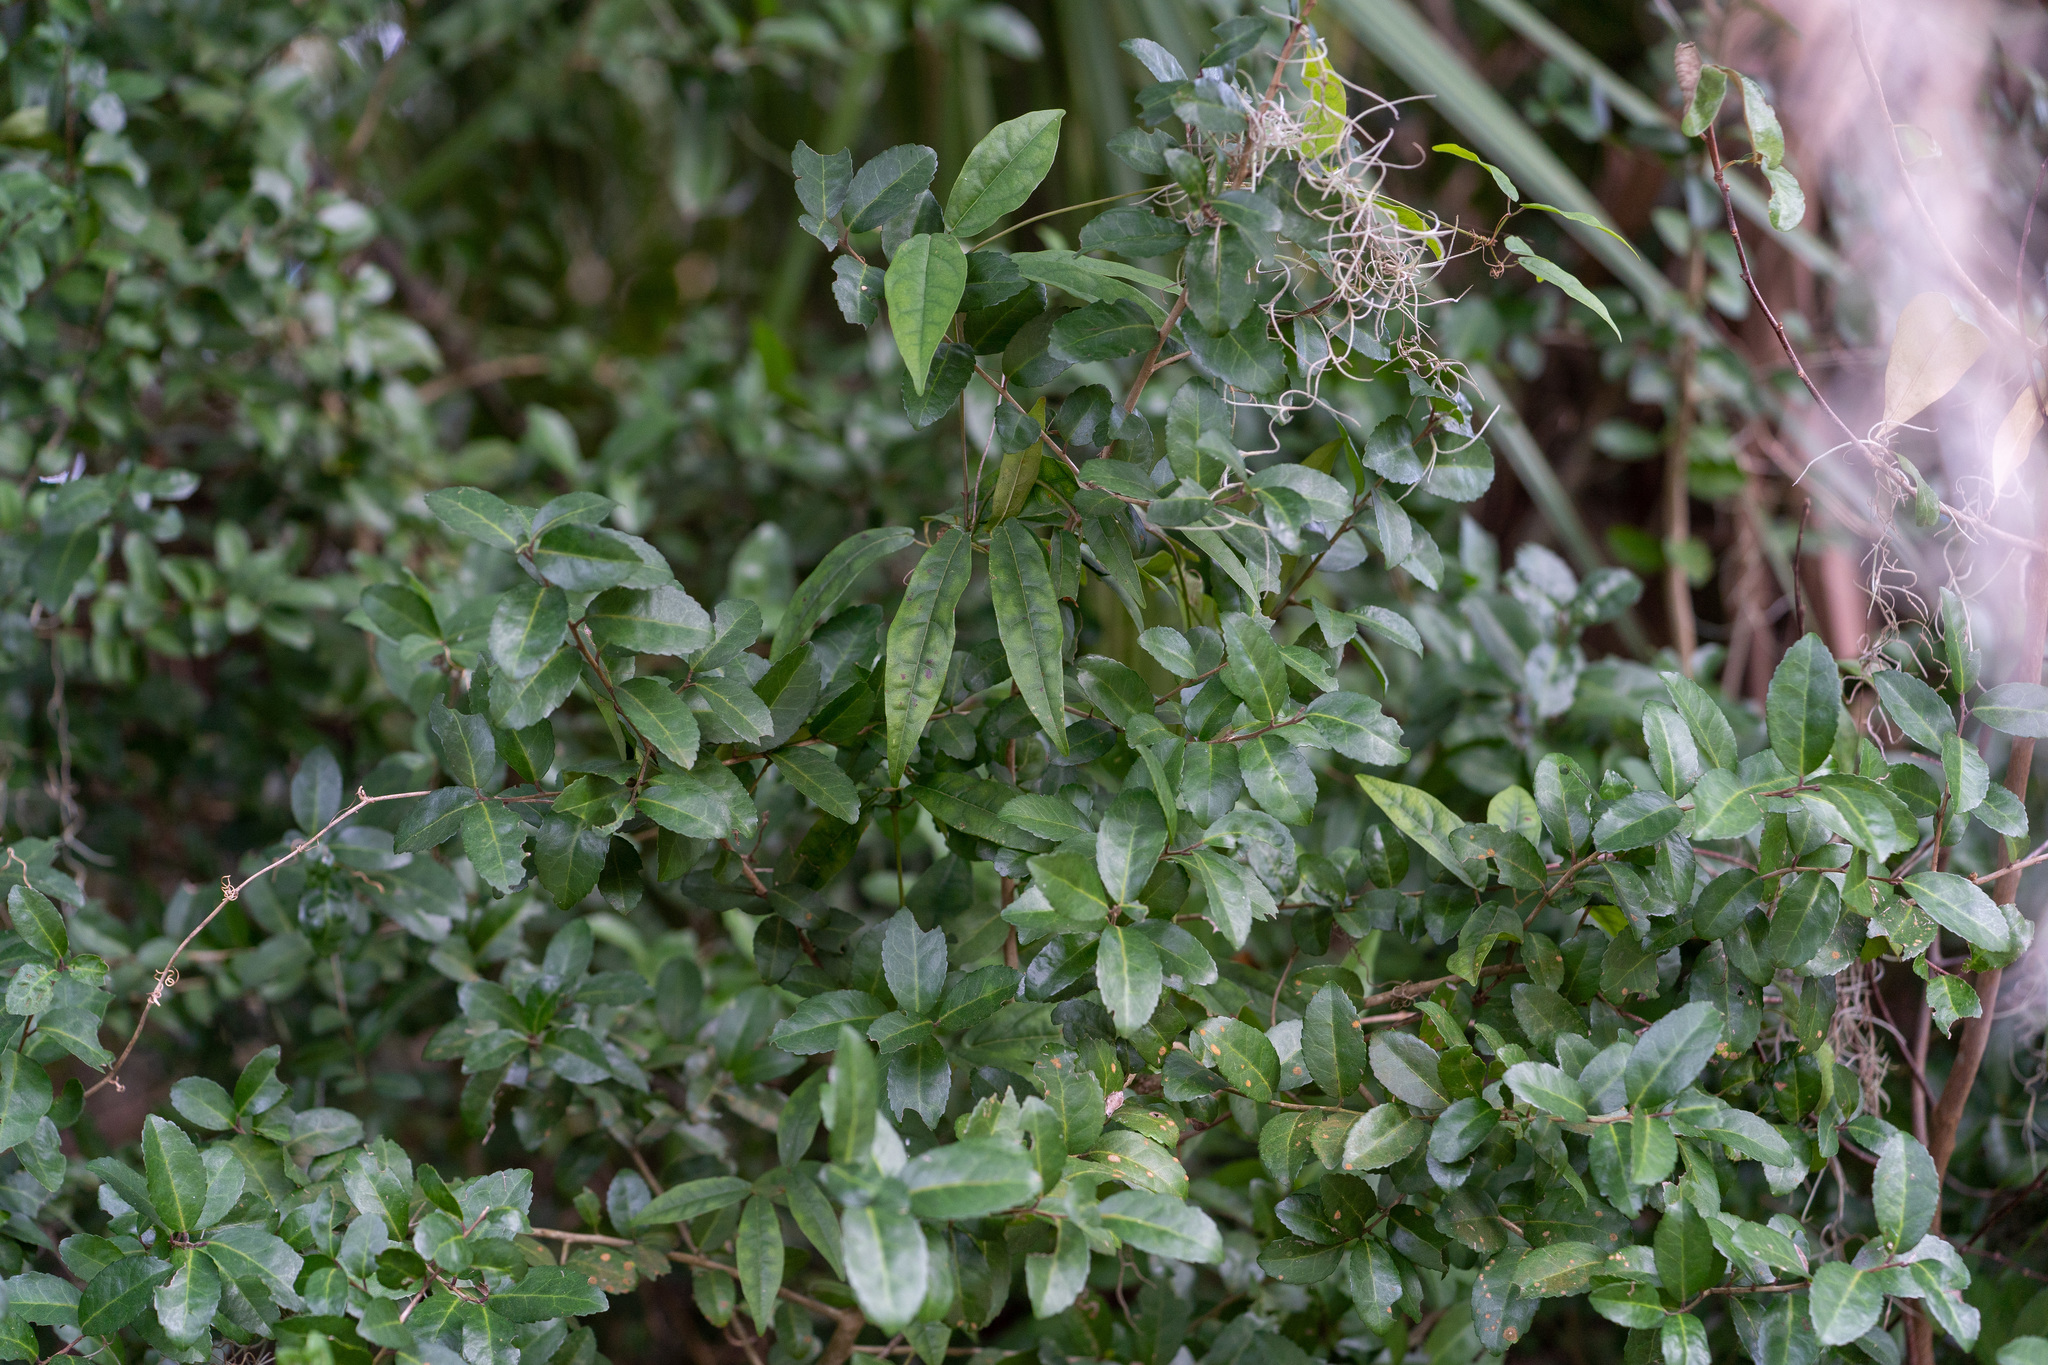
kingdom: Plantae
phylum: Tracheophyta
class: Magnoliopsida
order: Aquifoliales
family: Aquifoliaceae
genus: Ilex
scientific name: Ilex vomitoria
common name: Yaupon holly
